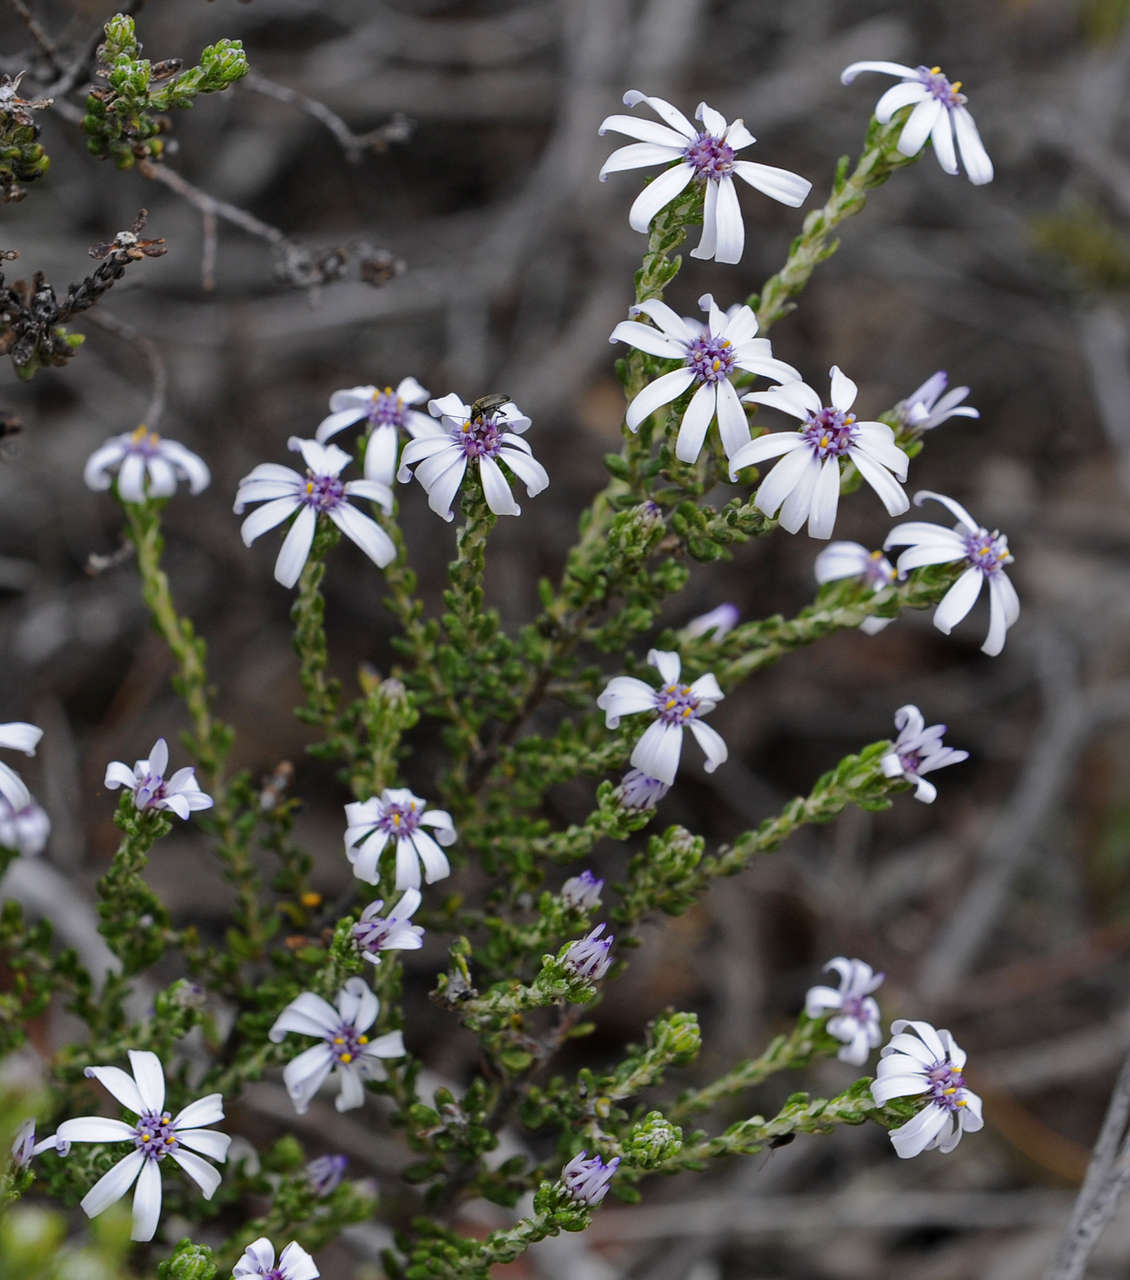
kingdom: Plantae
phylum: Tracheophyta
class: Magnoliopsida
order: Asterales
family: Asteraceae
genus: Olearia
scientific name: Olearia minor
